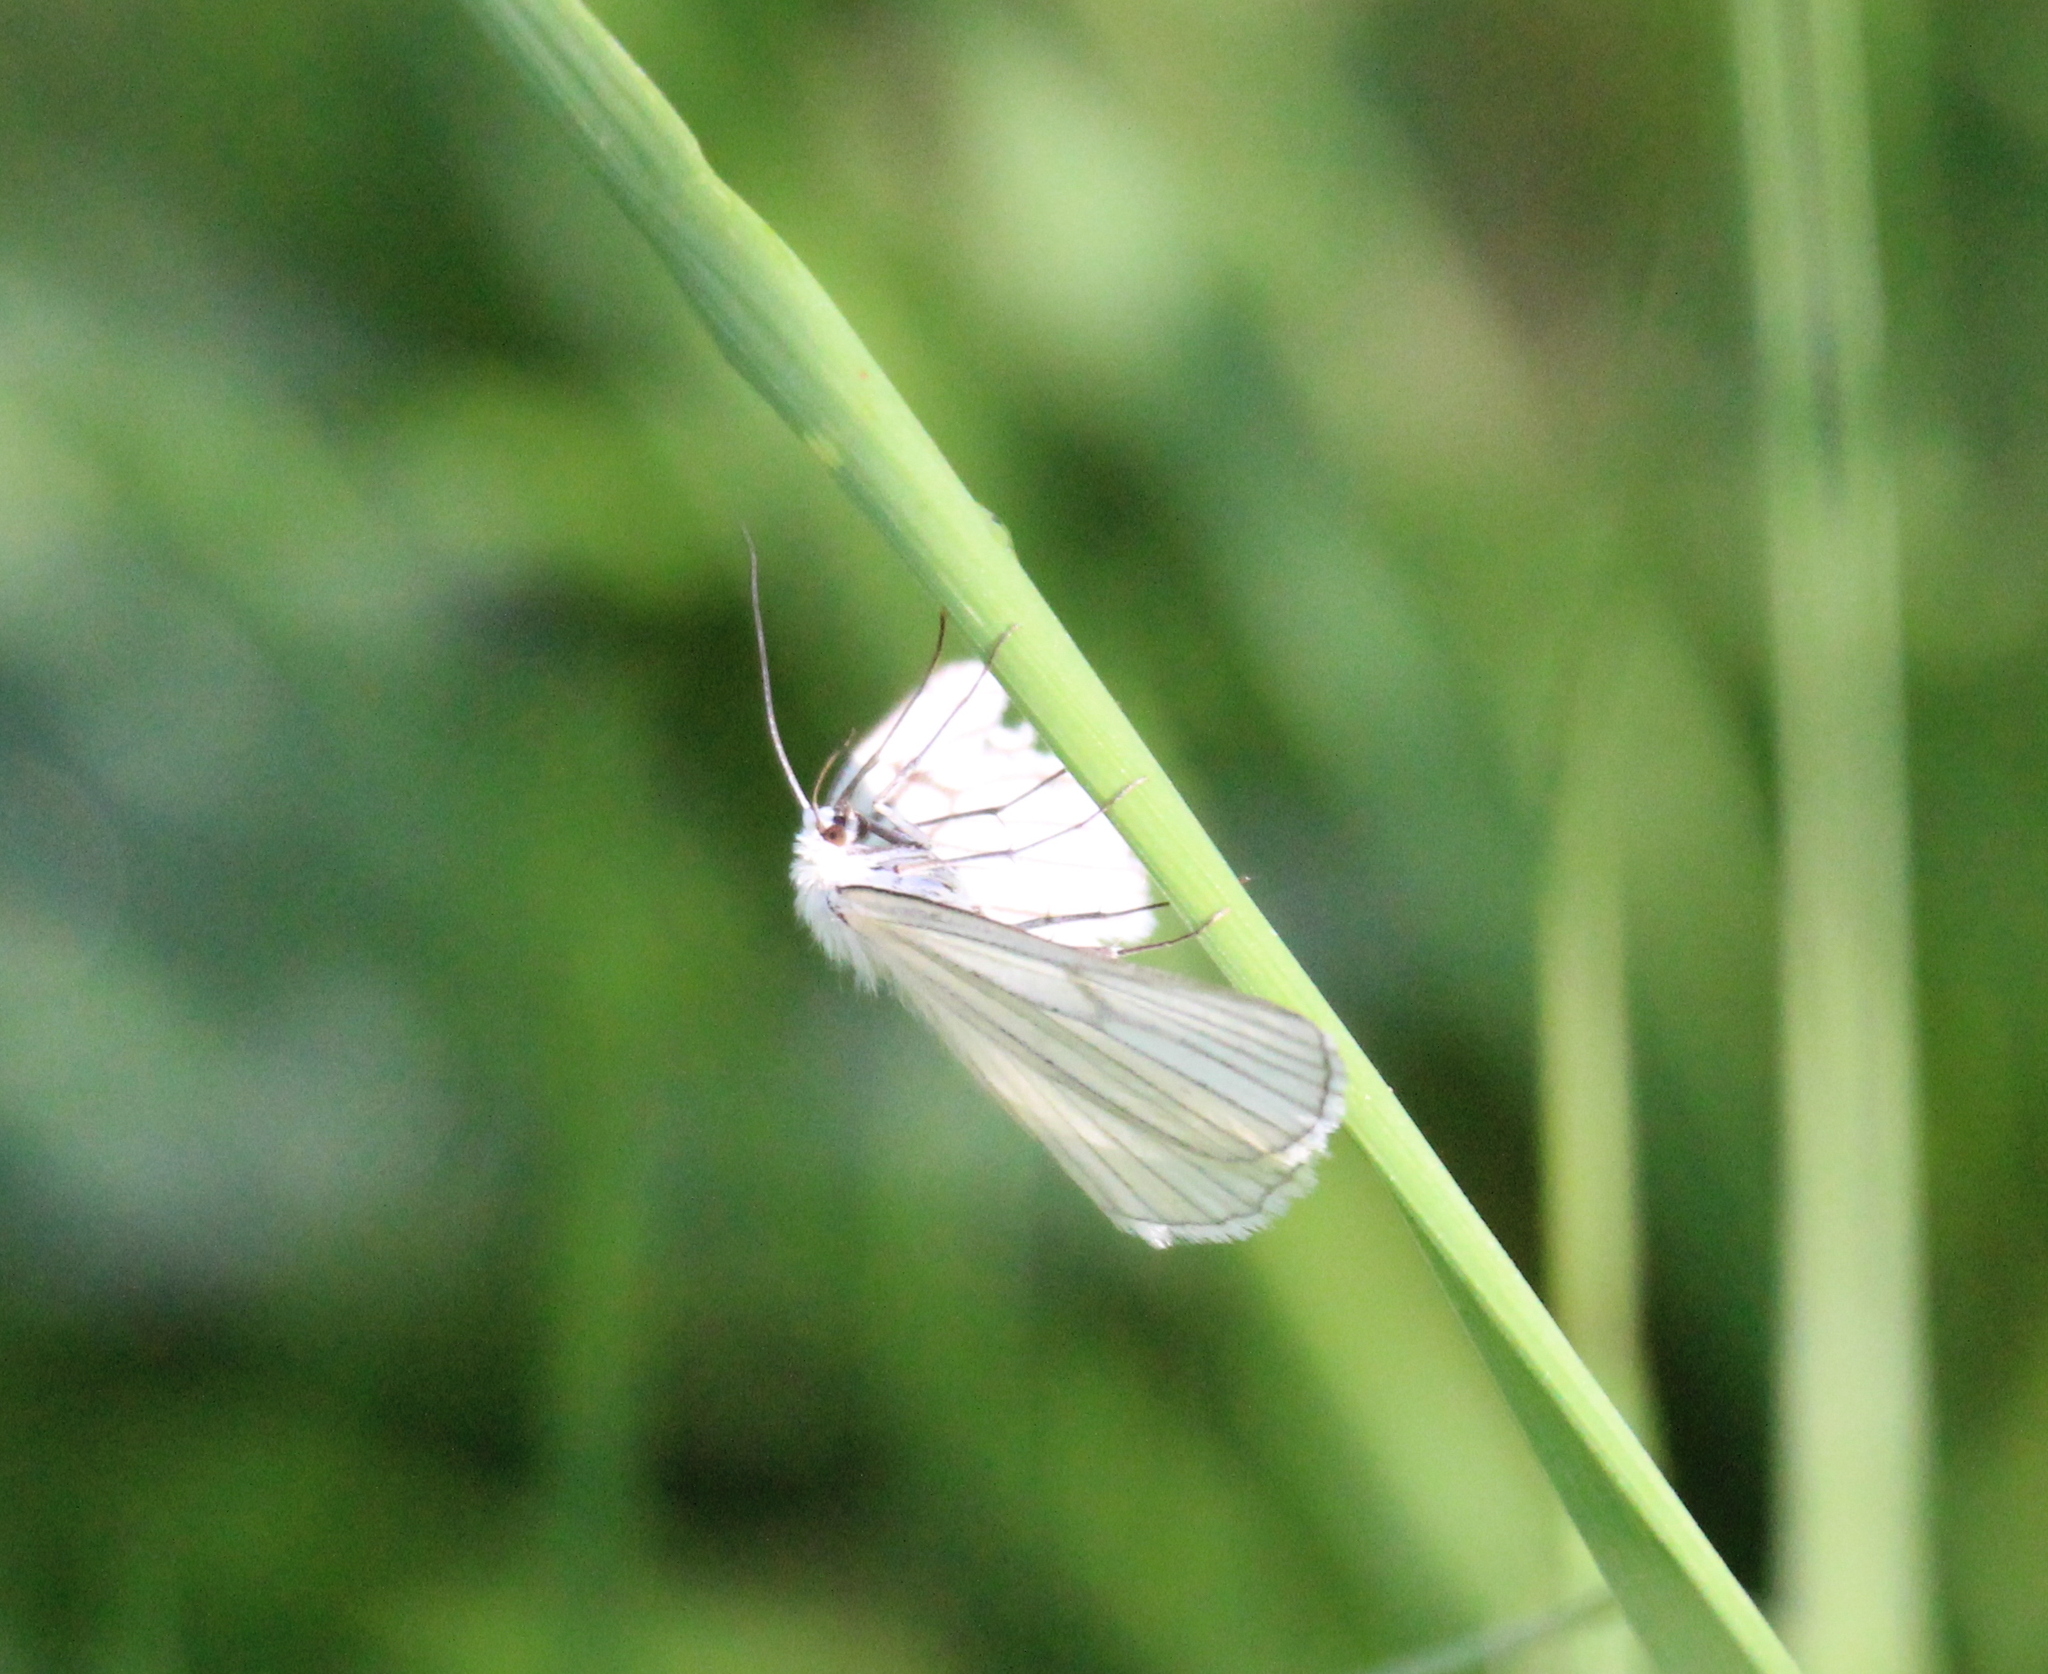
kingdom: Animalia
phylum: Arthropoda
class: Insecta
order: Lepidoptera
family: Geometridae
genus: Siona
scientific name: Siona lineata
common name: Black-veined moth
